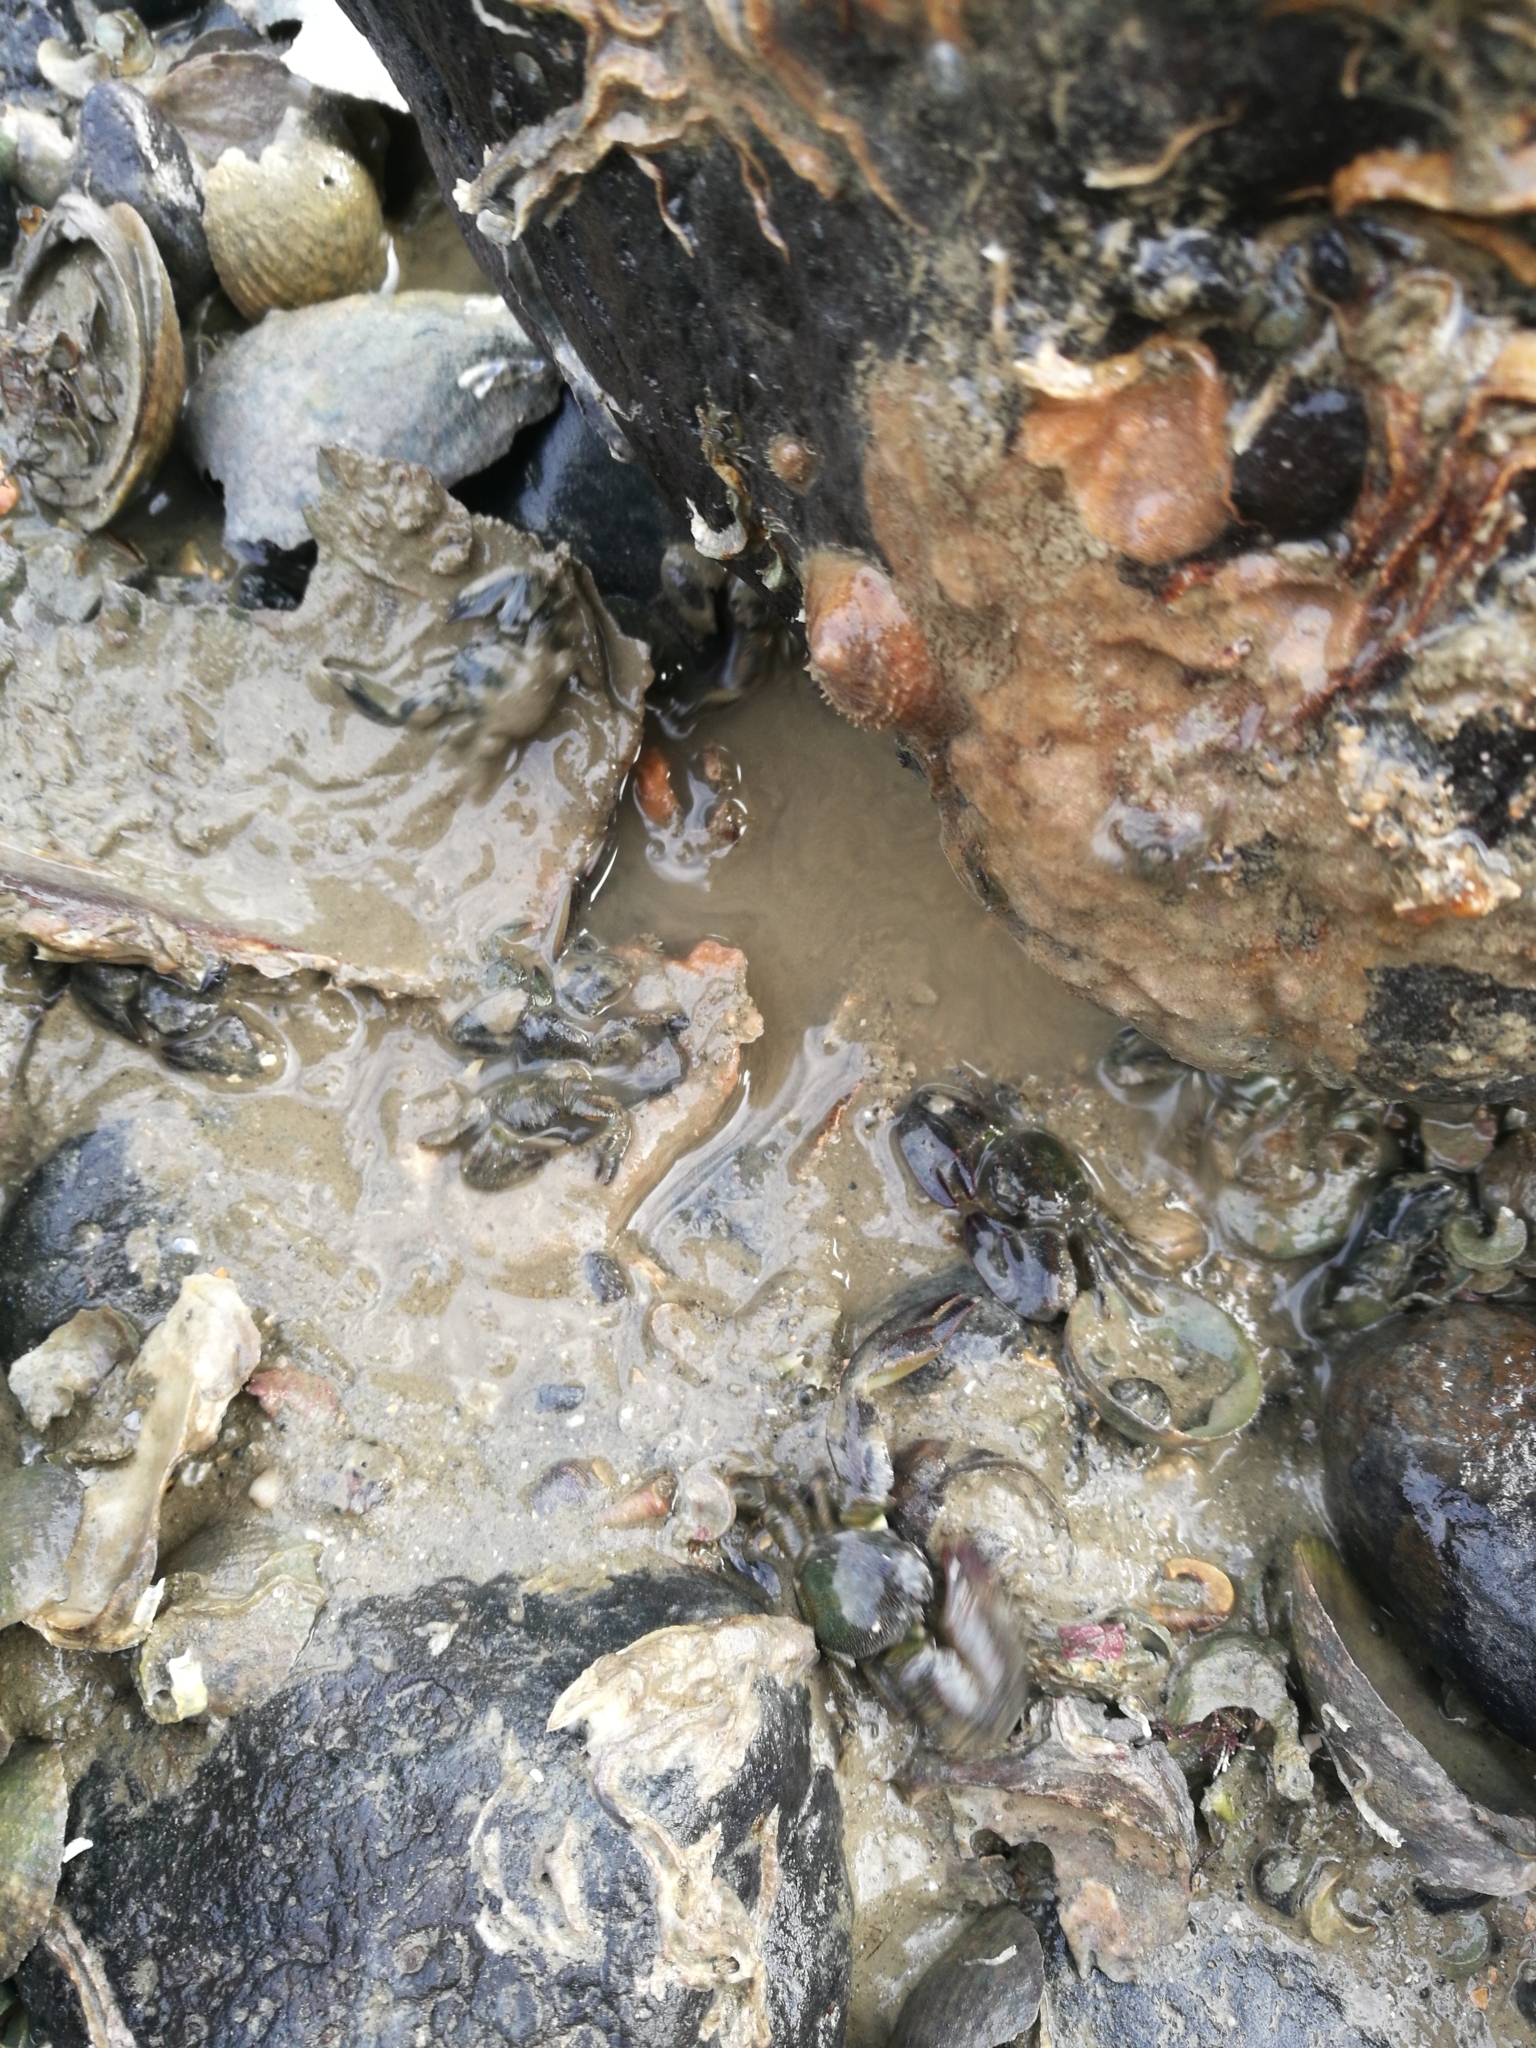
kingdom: Animalia
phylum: Annelida
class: Polychaeta
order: Sabellida
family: Serpulidae
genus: Spirobranchus
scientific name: Spirobranchus cariniferus
